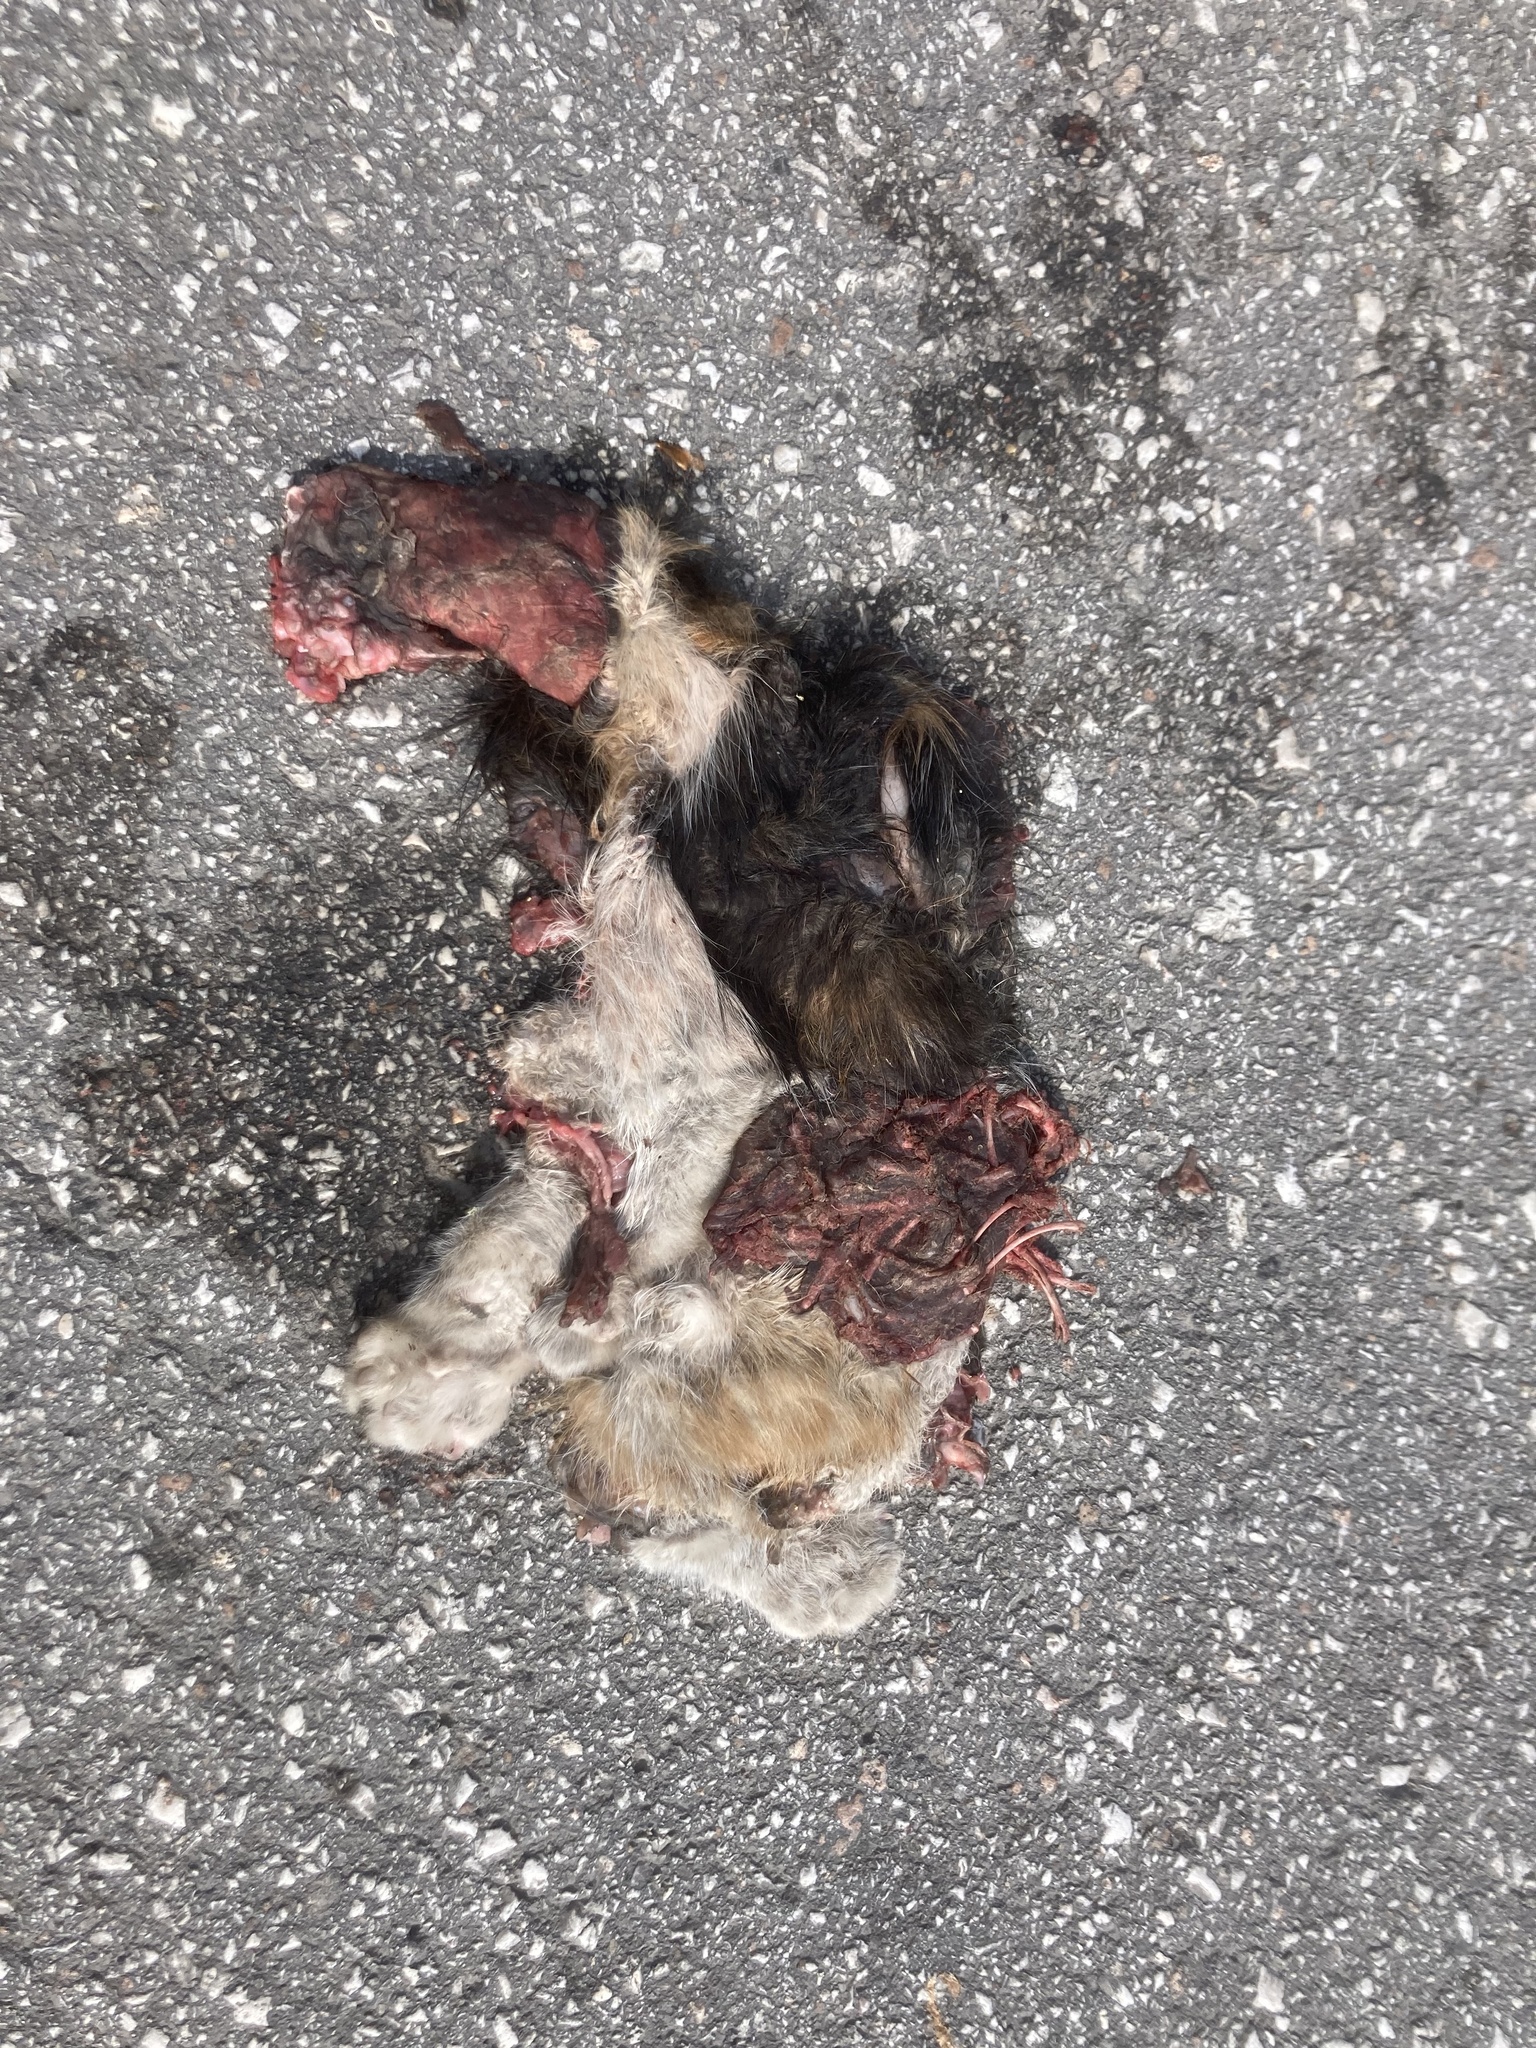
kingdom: Animalia
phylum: Chordata
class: Mammalia
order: Carnivora
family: Felidae
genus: Felis
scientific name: Felis catus
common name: Domestic cat
